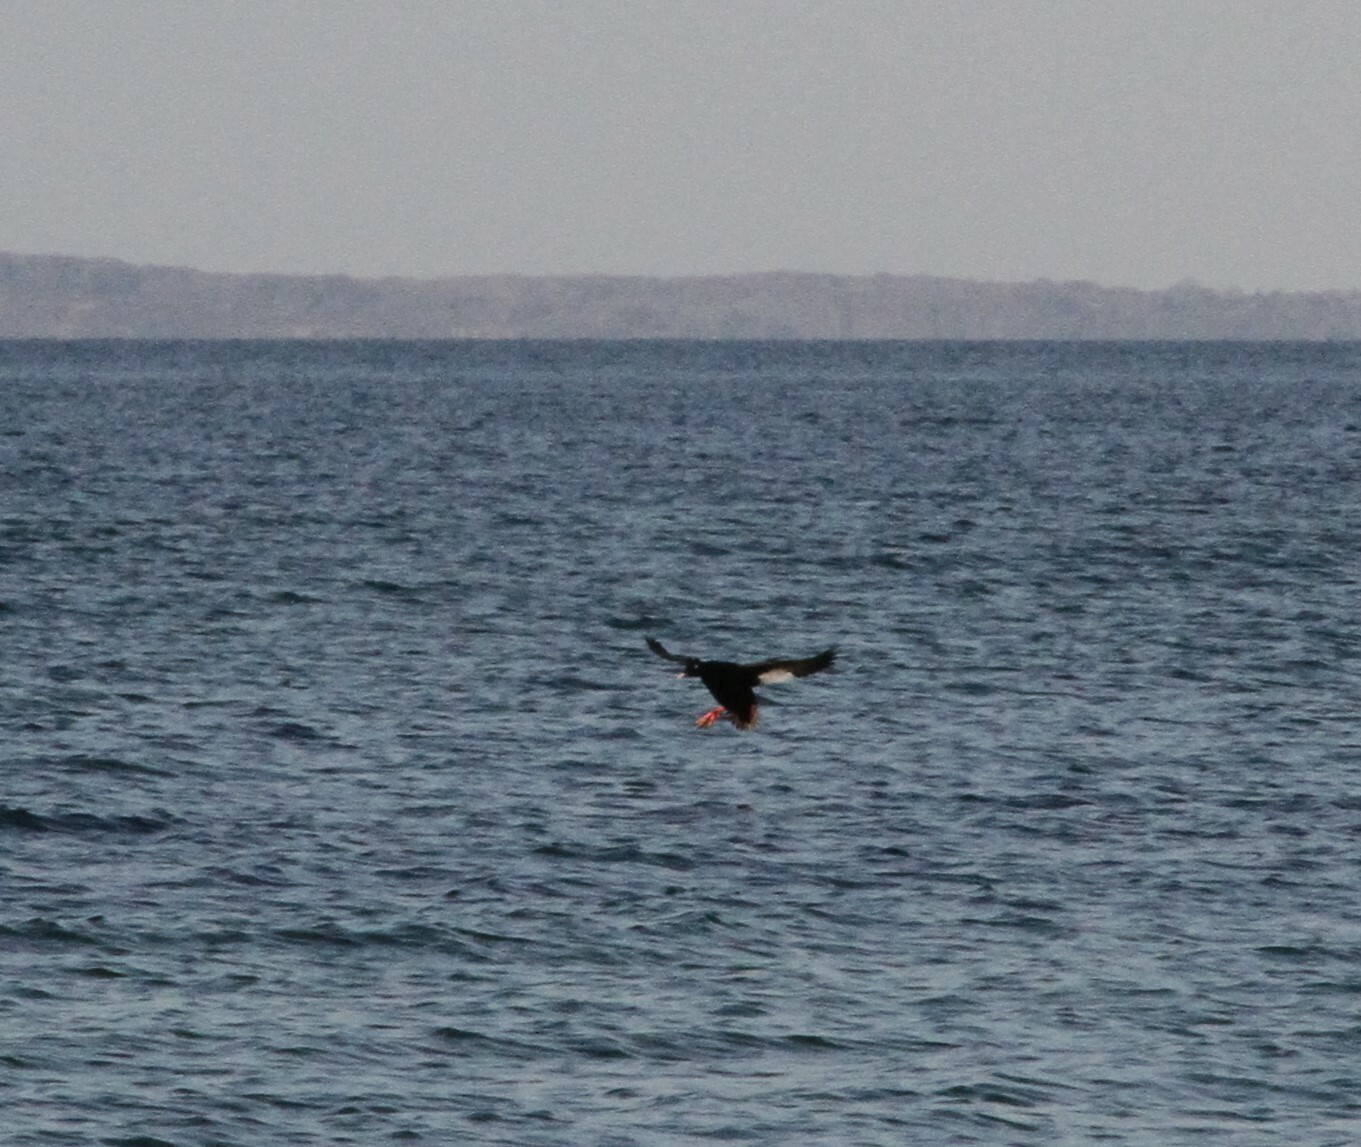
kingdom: Animalia
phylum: Chordata
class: Aves
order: Anseriformes
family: Anatidae
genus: Melanitta
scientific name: Melanitta deglandi
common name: White-winged scoter
